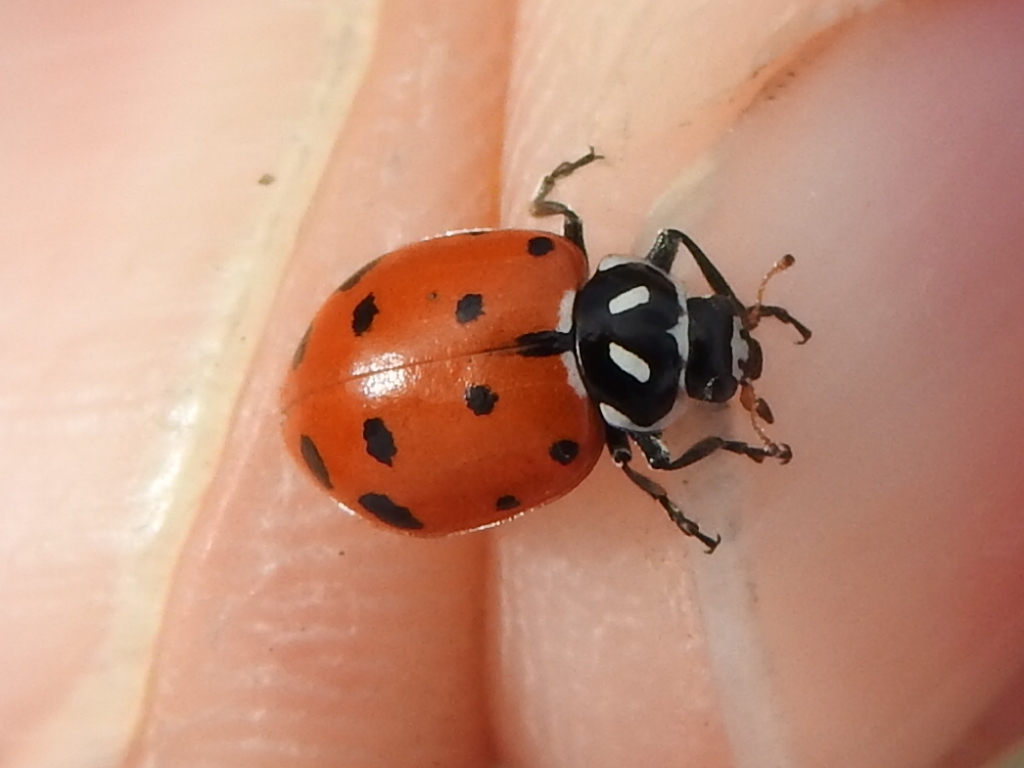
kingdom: Animalia
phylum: Arthropoda
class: Insecta
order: Coleoptera
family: Coccinellidae
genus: Hippodamia
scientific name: Hippodamia convergens
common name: Convergent lady beetle
